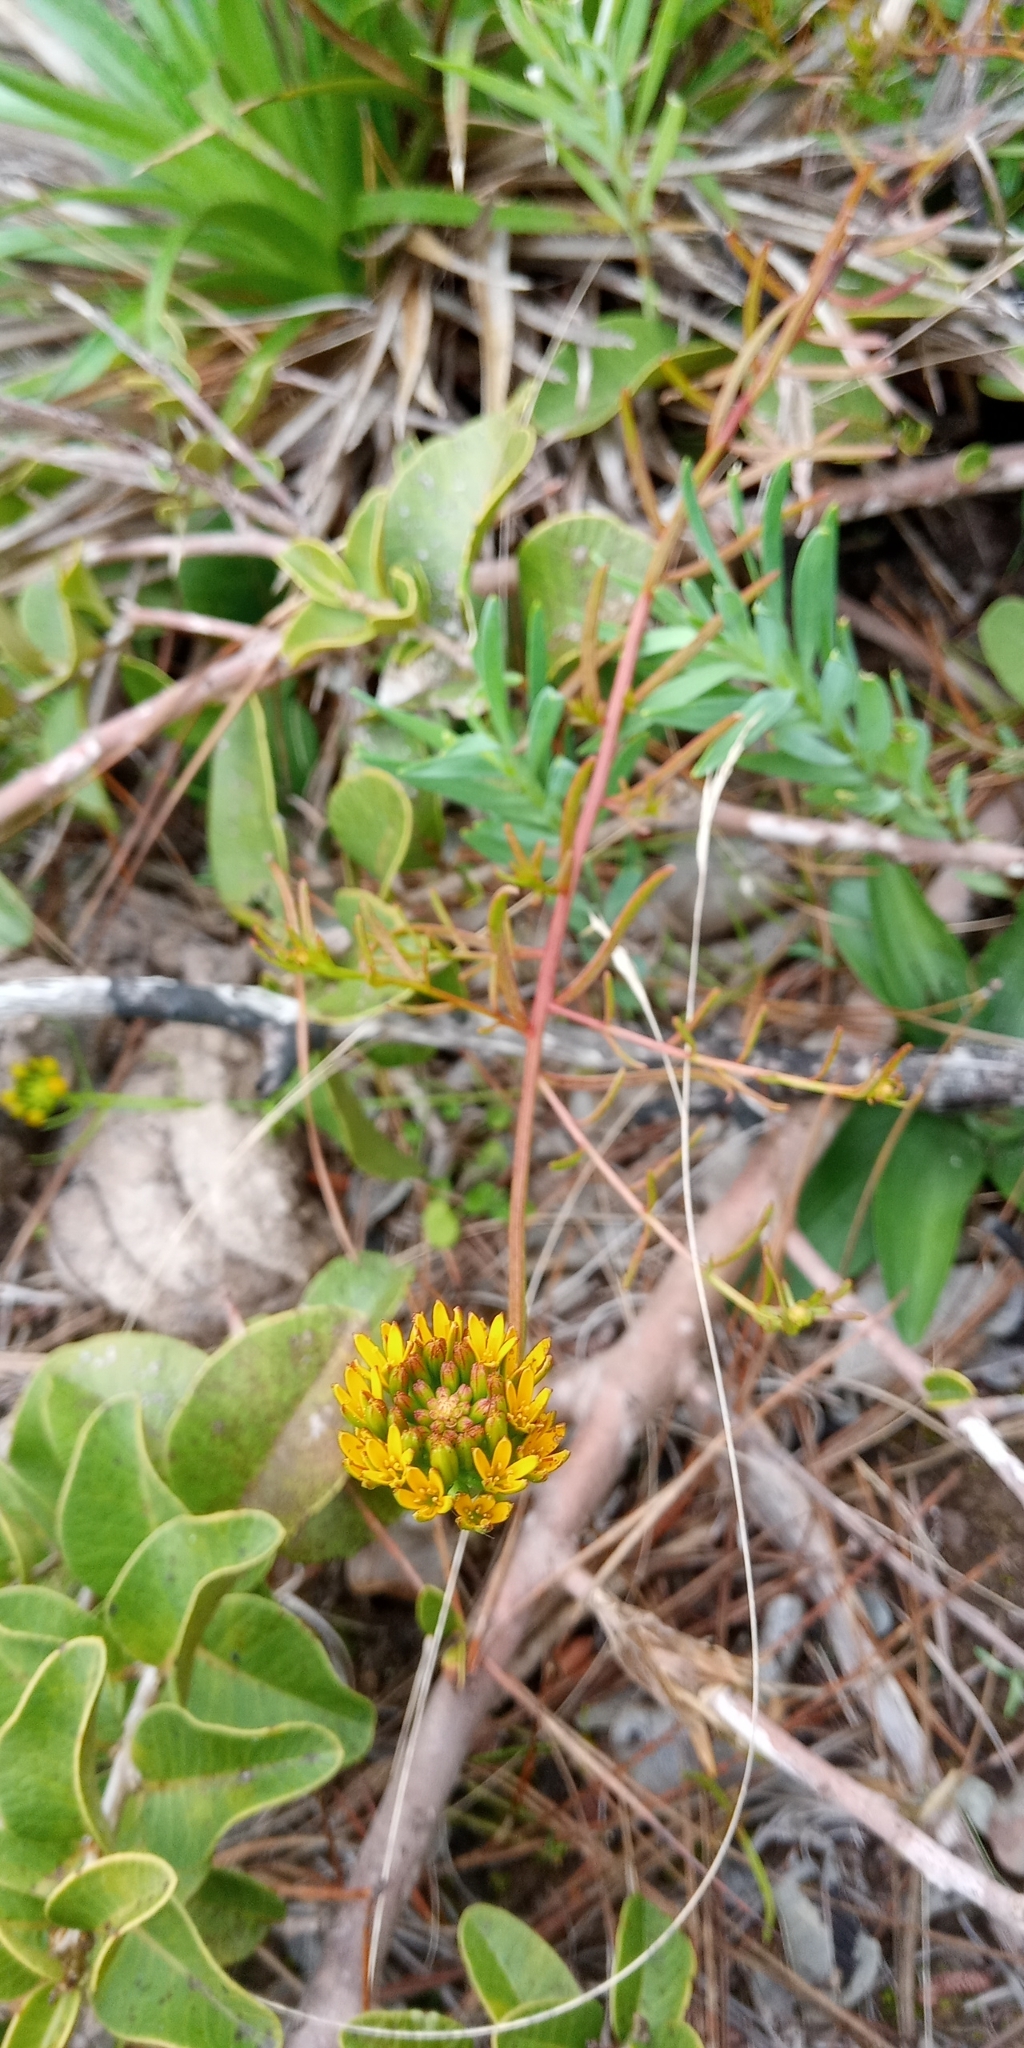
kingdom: Plantae
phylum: Tracheophyta
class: Magnoliopsida
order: Santalales
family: Schoepfiaceae
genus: Quinchamalium
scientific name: Quinchamalium chilense
